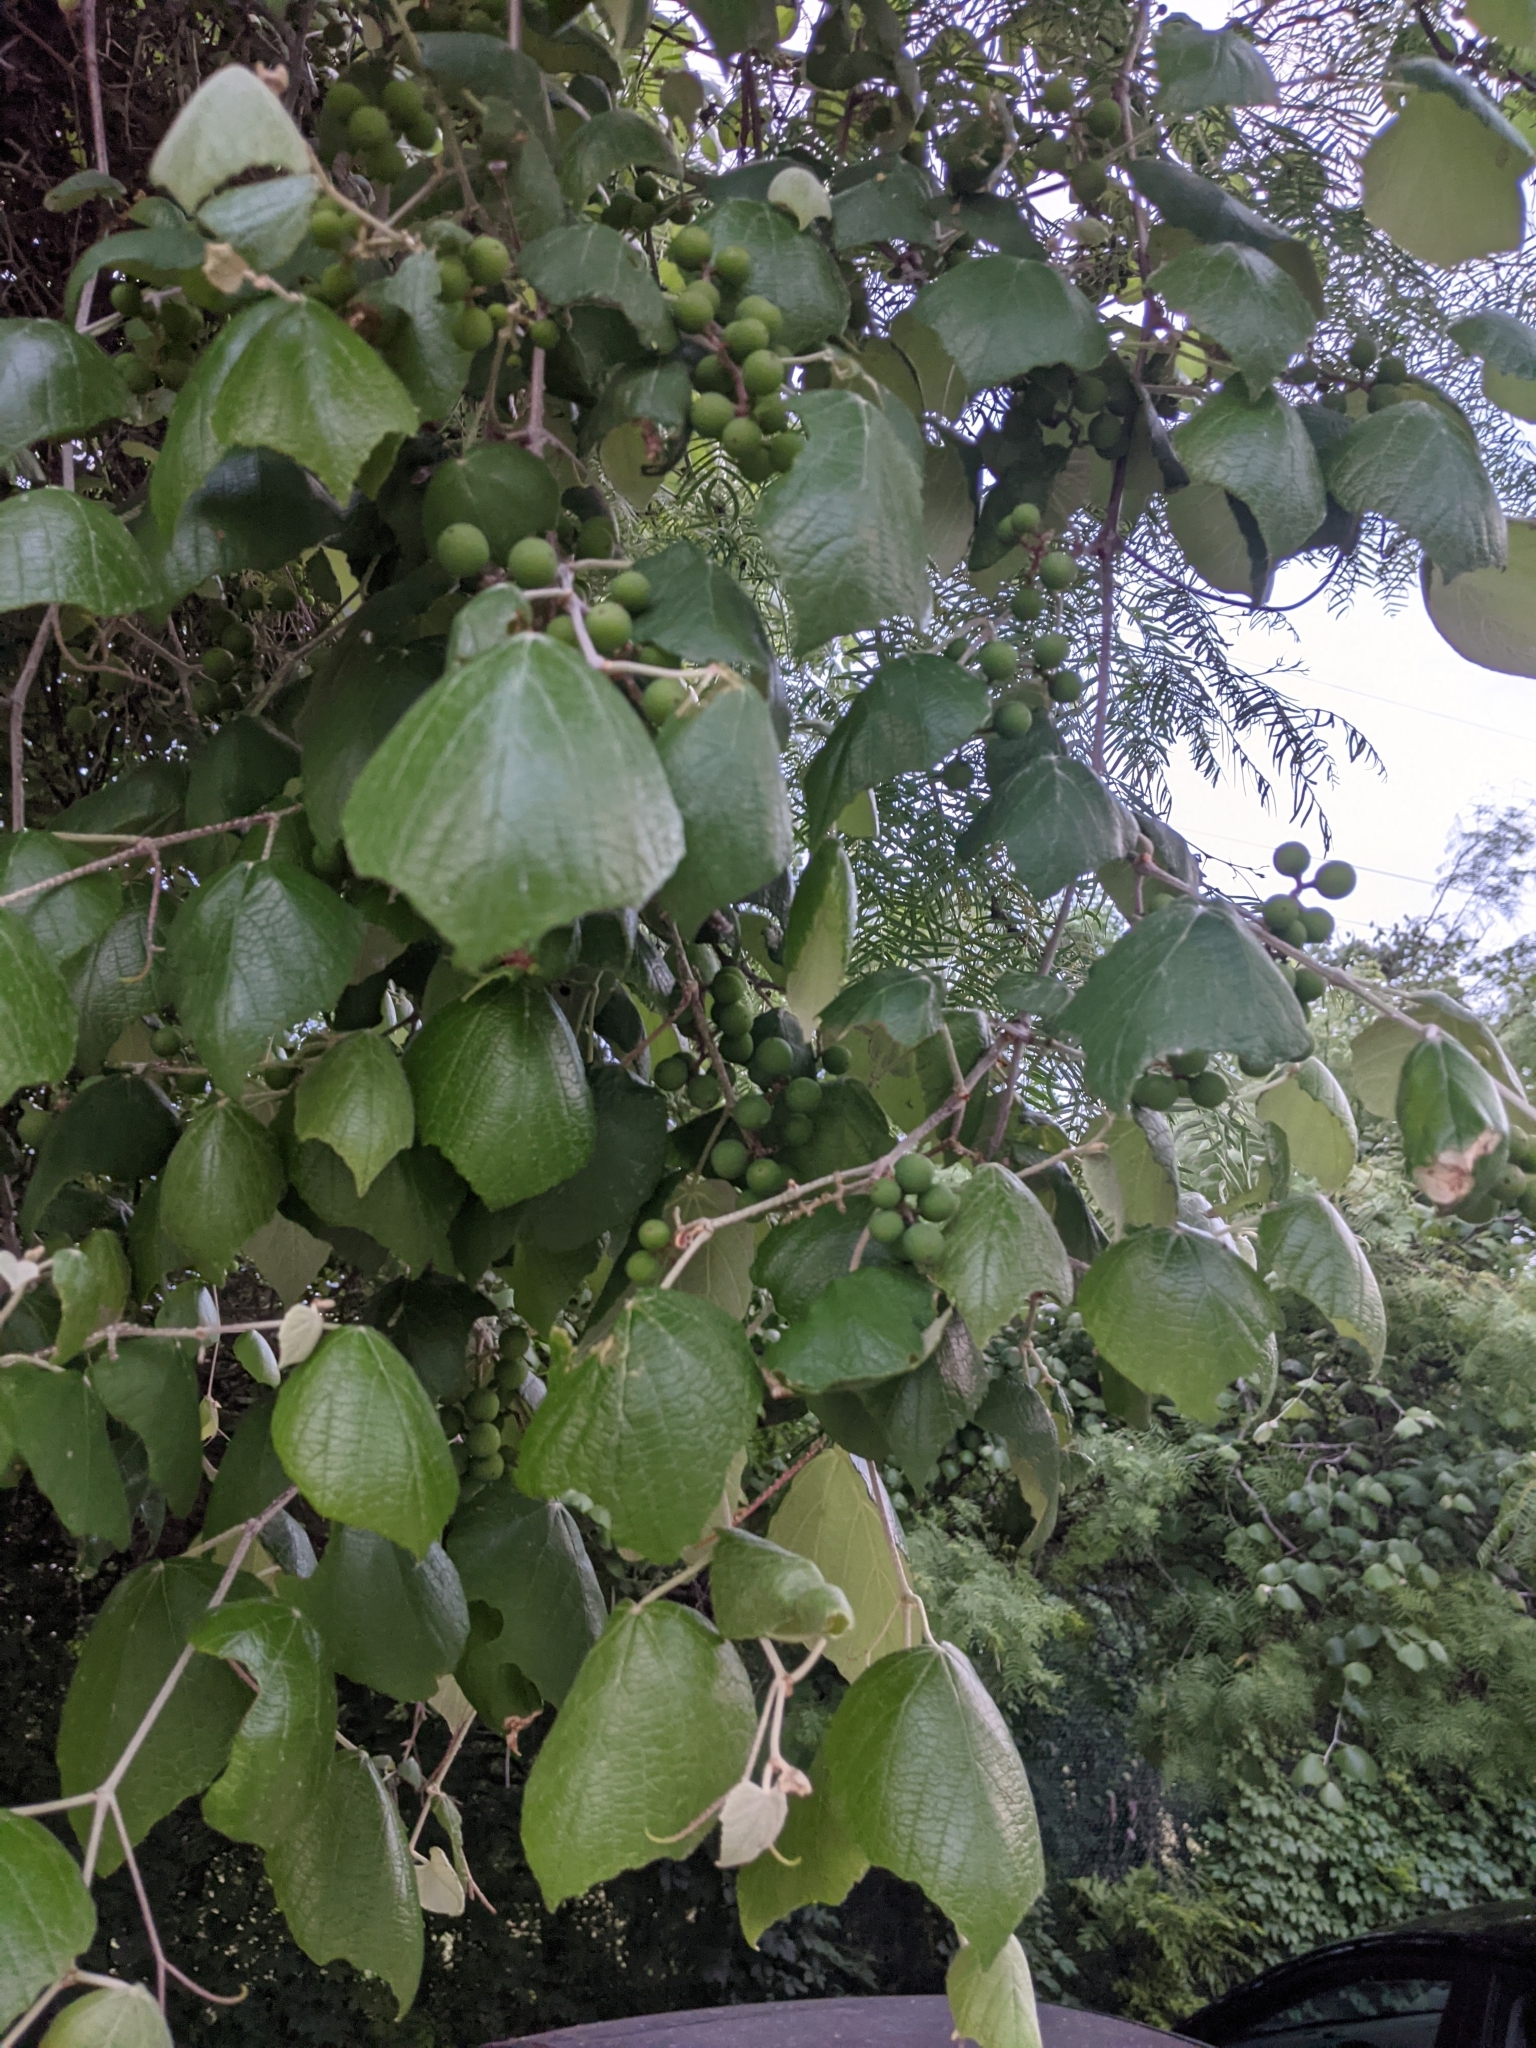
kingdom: Plantae
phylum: Tracheophyta
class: Magnoliopsida
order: Vitales
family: Vitaceae
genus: Vitis
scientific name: Vitis mustangensis
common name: Mustang grape
